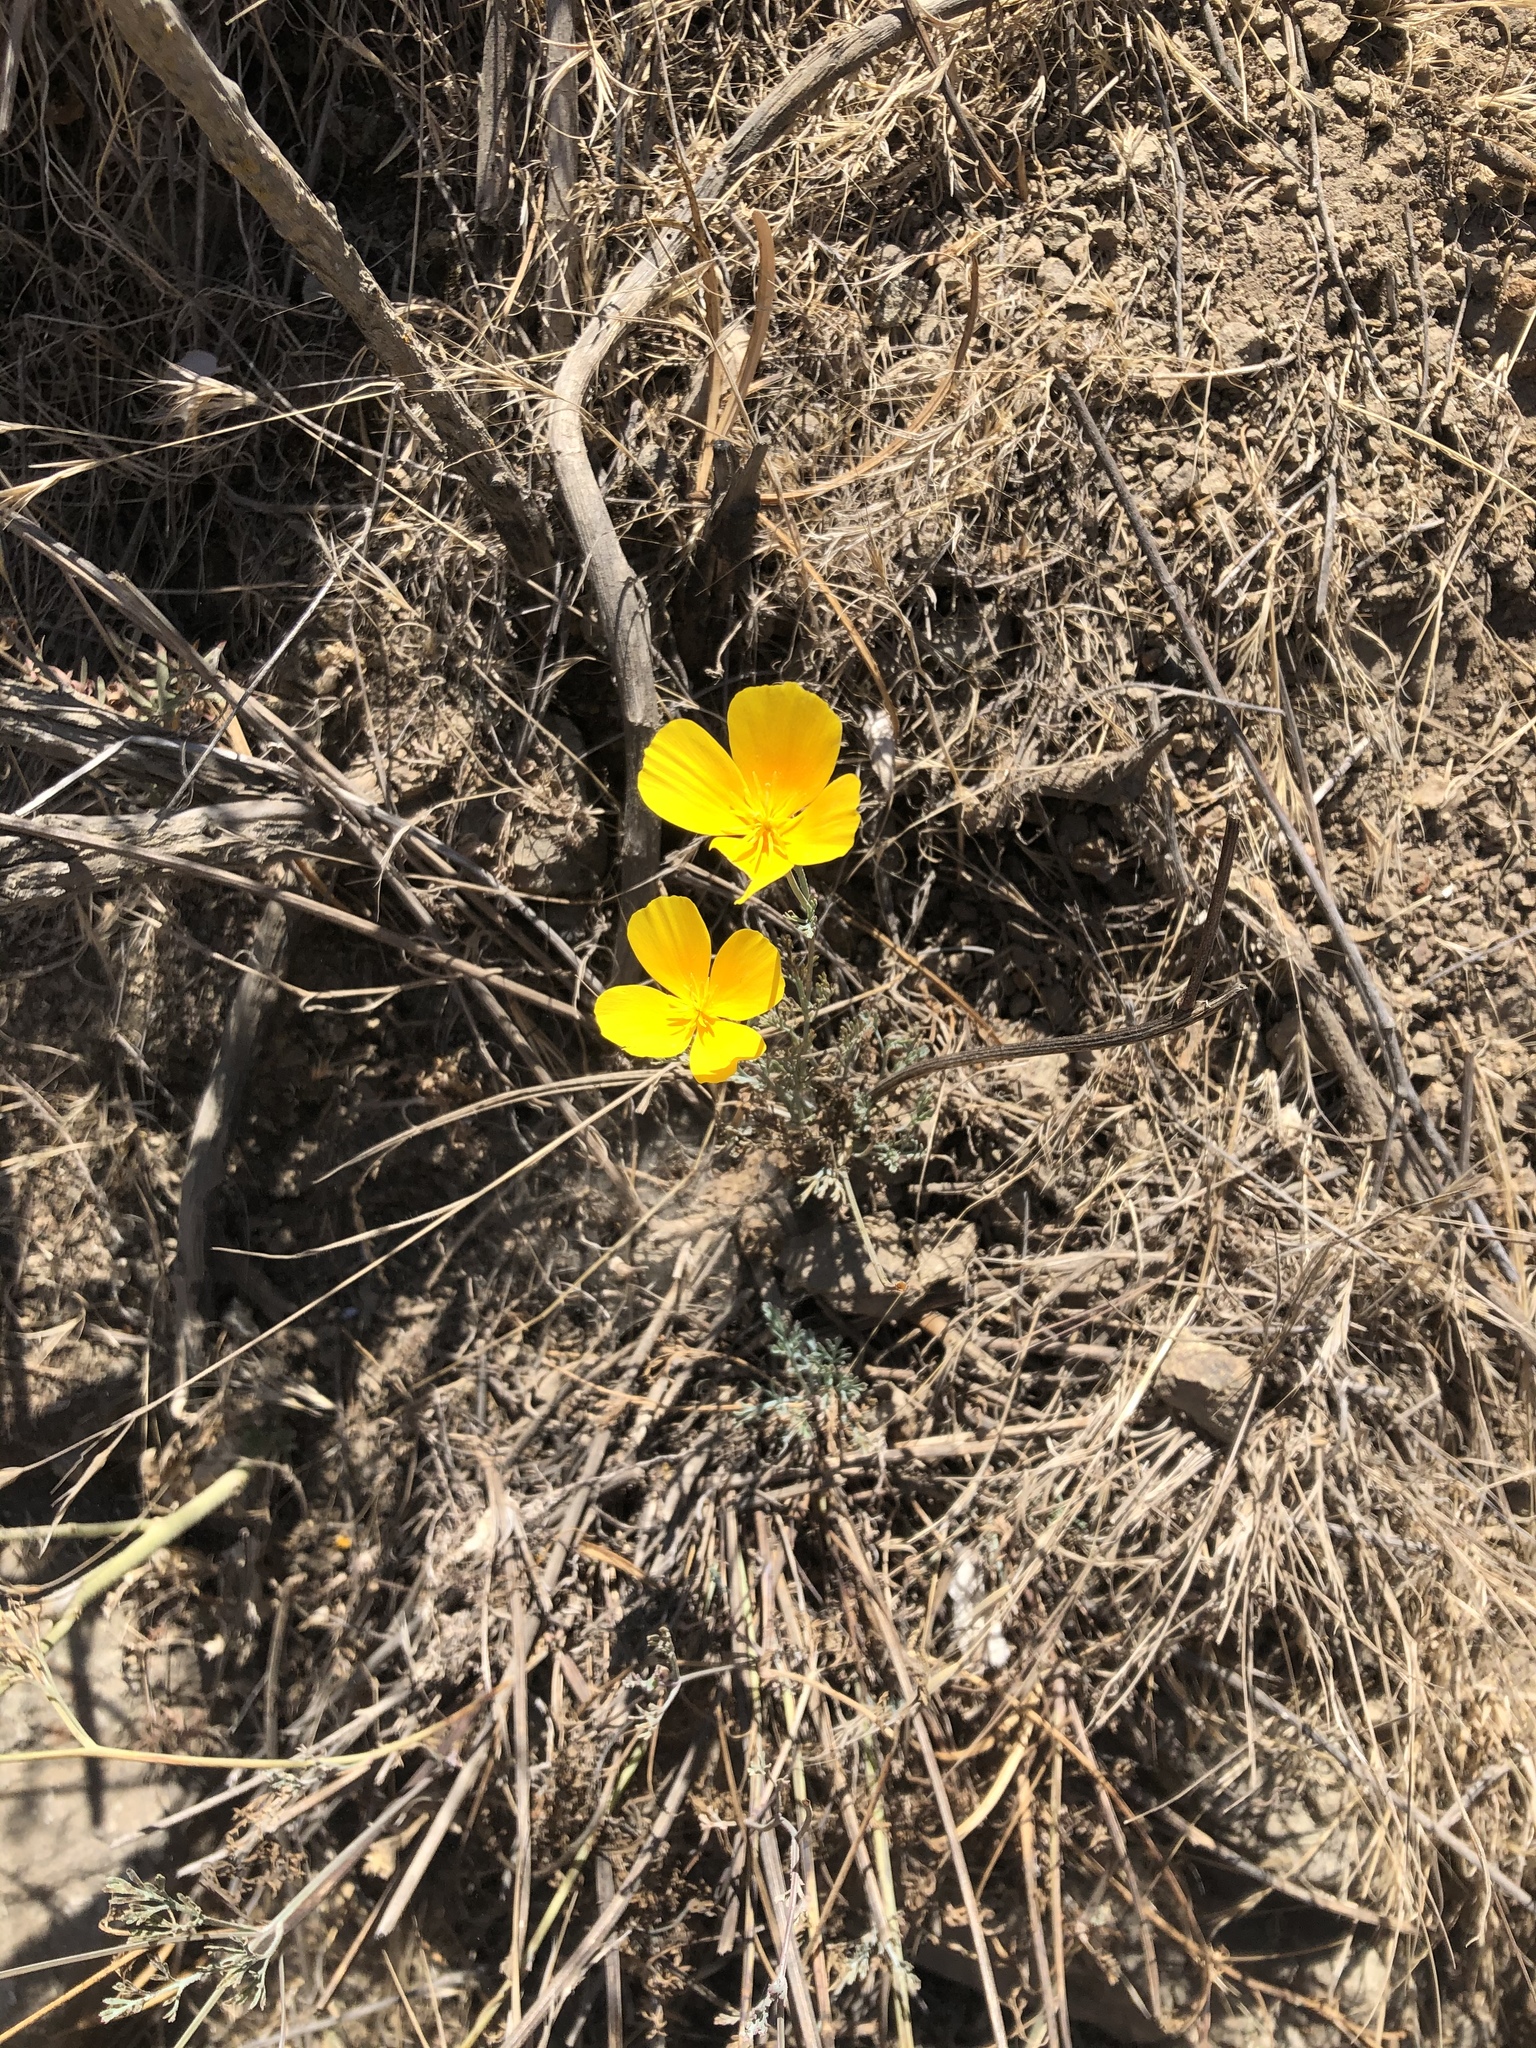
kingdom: Plantae
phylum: Tracheophyta
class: Magnoliopsida
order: Ranunculales
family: Papaveraceae
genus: Eschscholzia
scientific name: Eschscholzia californica
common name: California poppy
